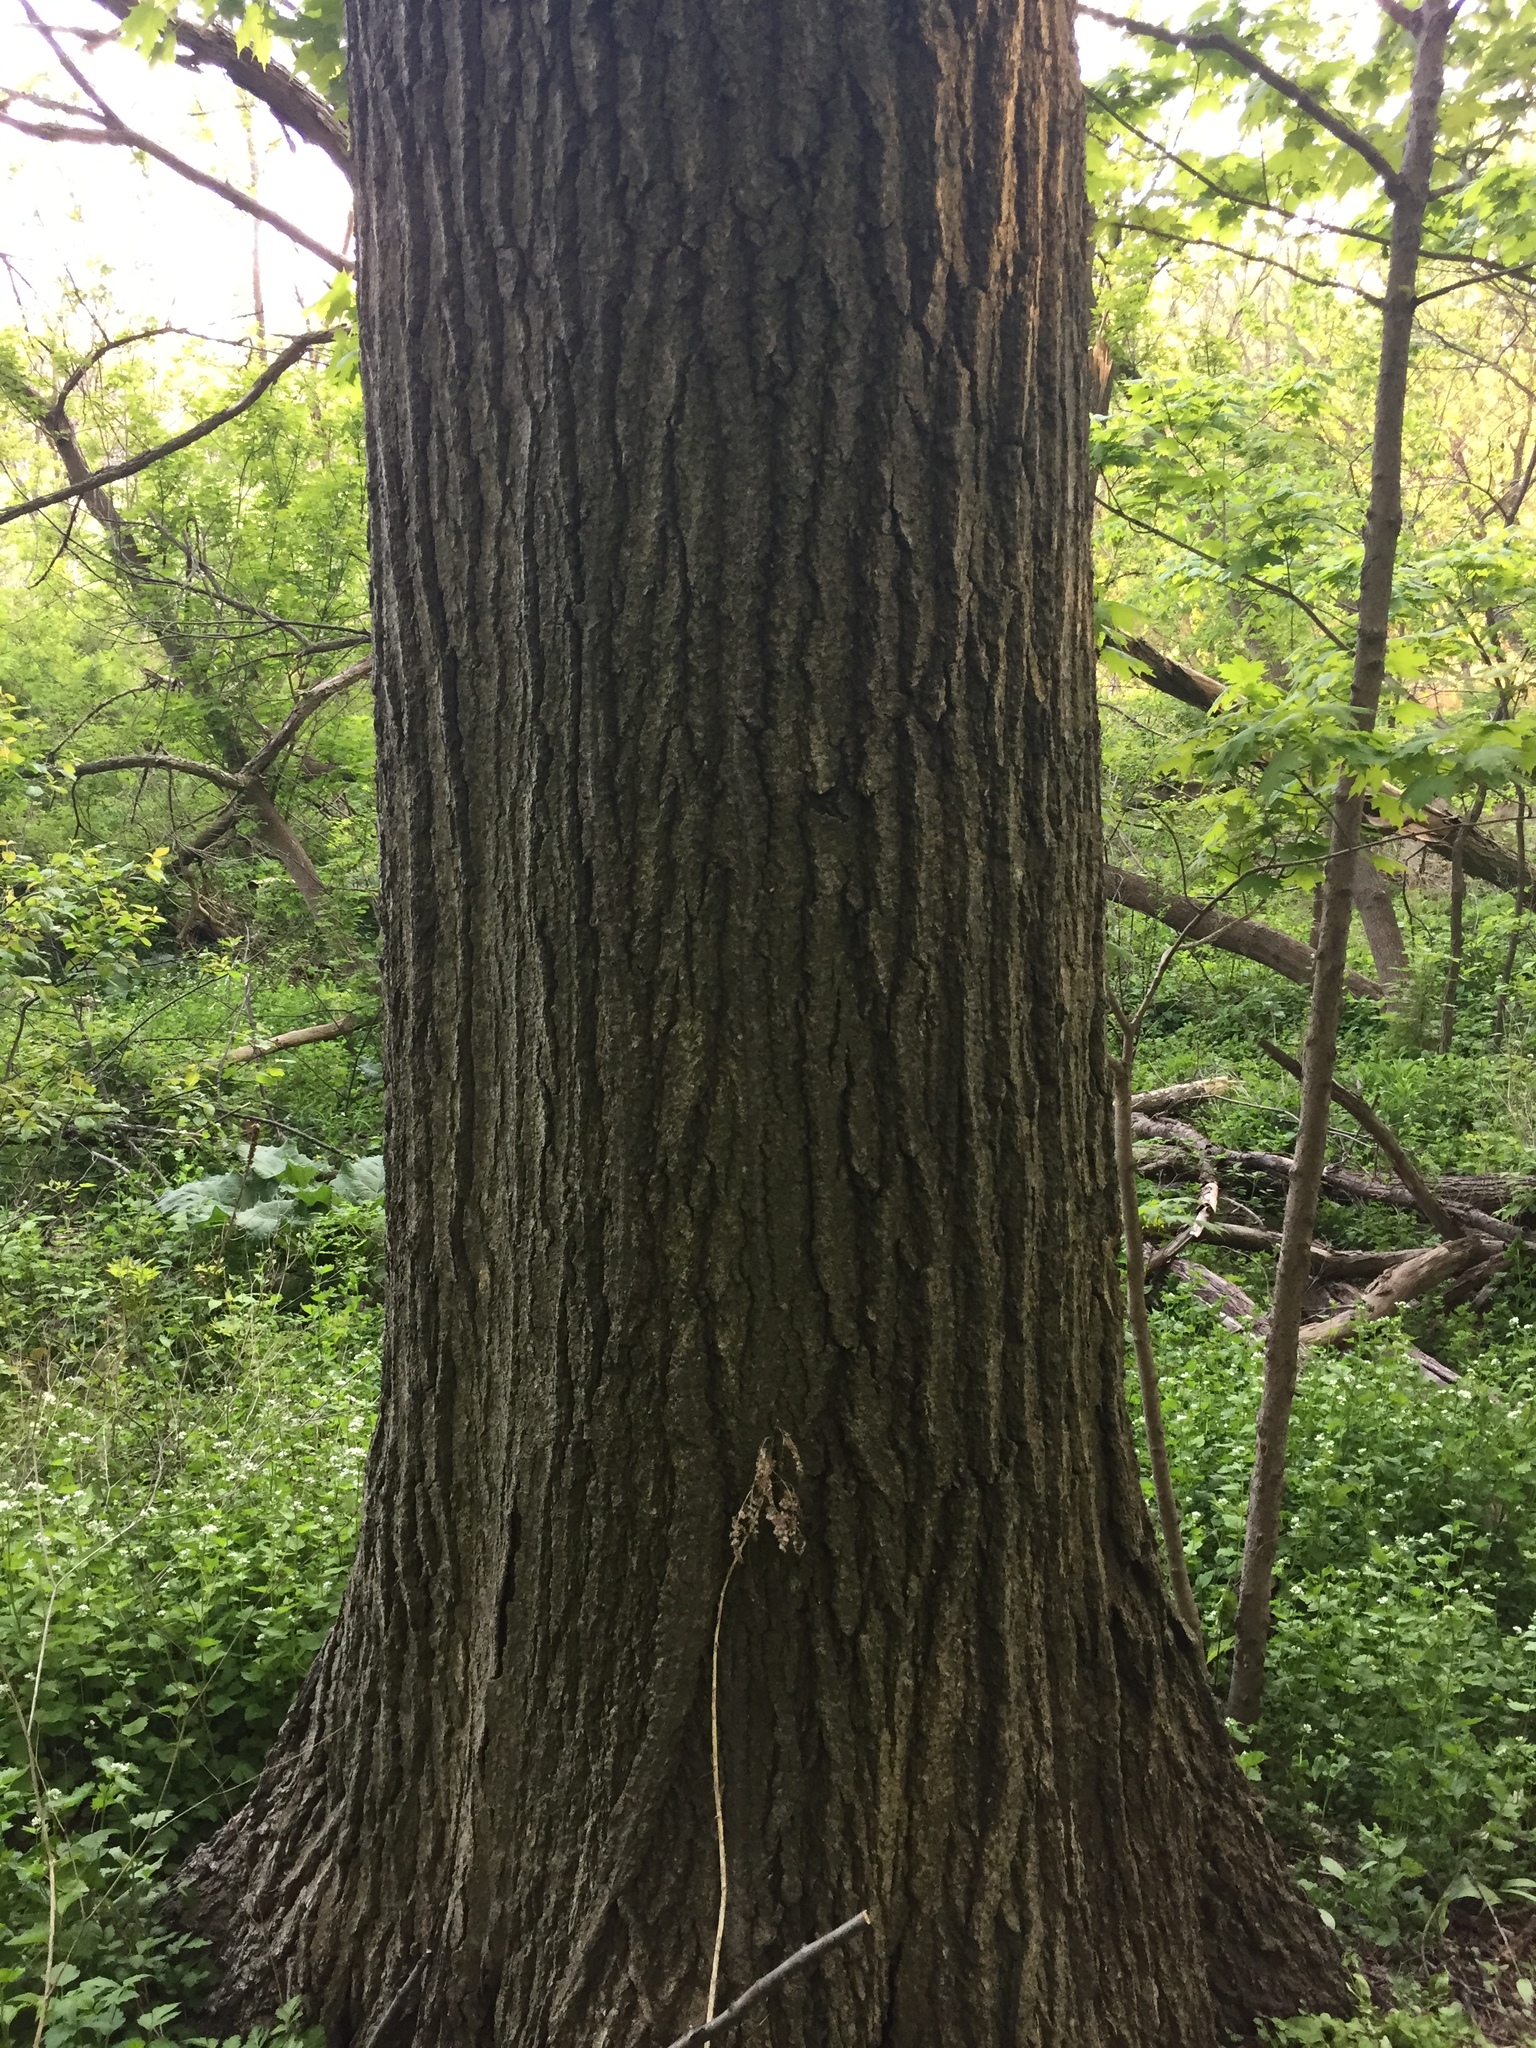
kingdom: Plantae
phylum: Tracheophyta
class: Magnoliopsida
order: Fagales
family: Fagaceae
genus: Quercus
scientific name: Quercus rubra
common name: Red oak
